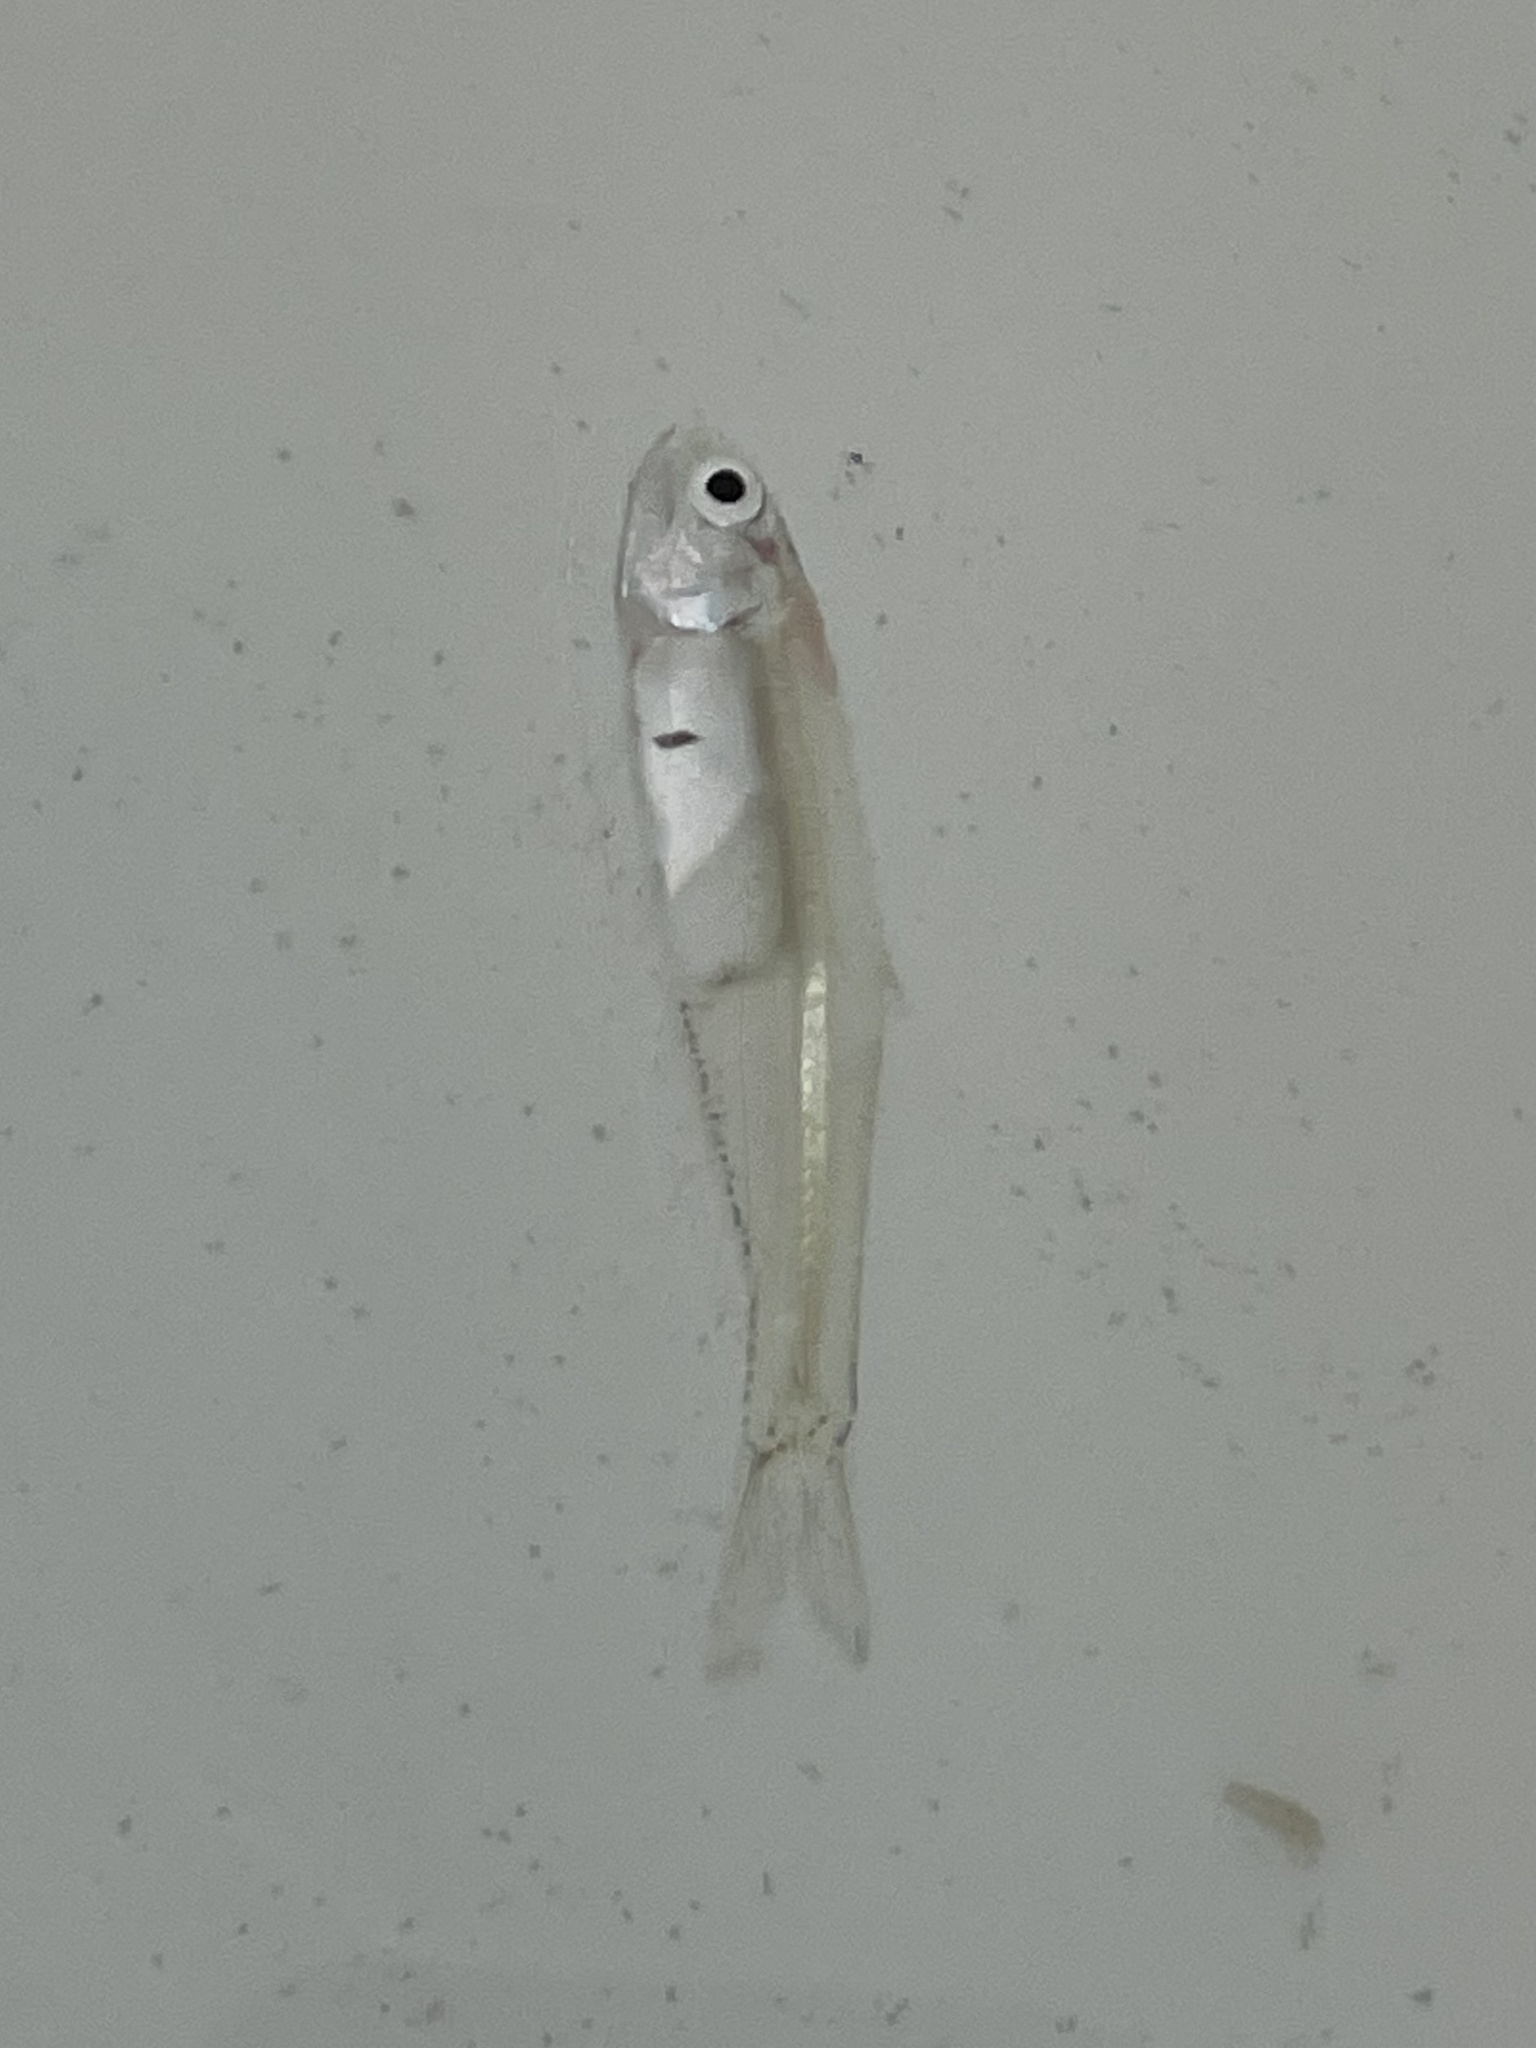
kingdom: Animalia
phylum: Chordata
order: Clupeiformes
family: Engraulidae
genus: Anchoa
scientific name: Anchoa mitchilli
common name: Bay anchovy
